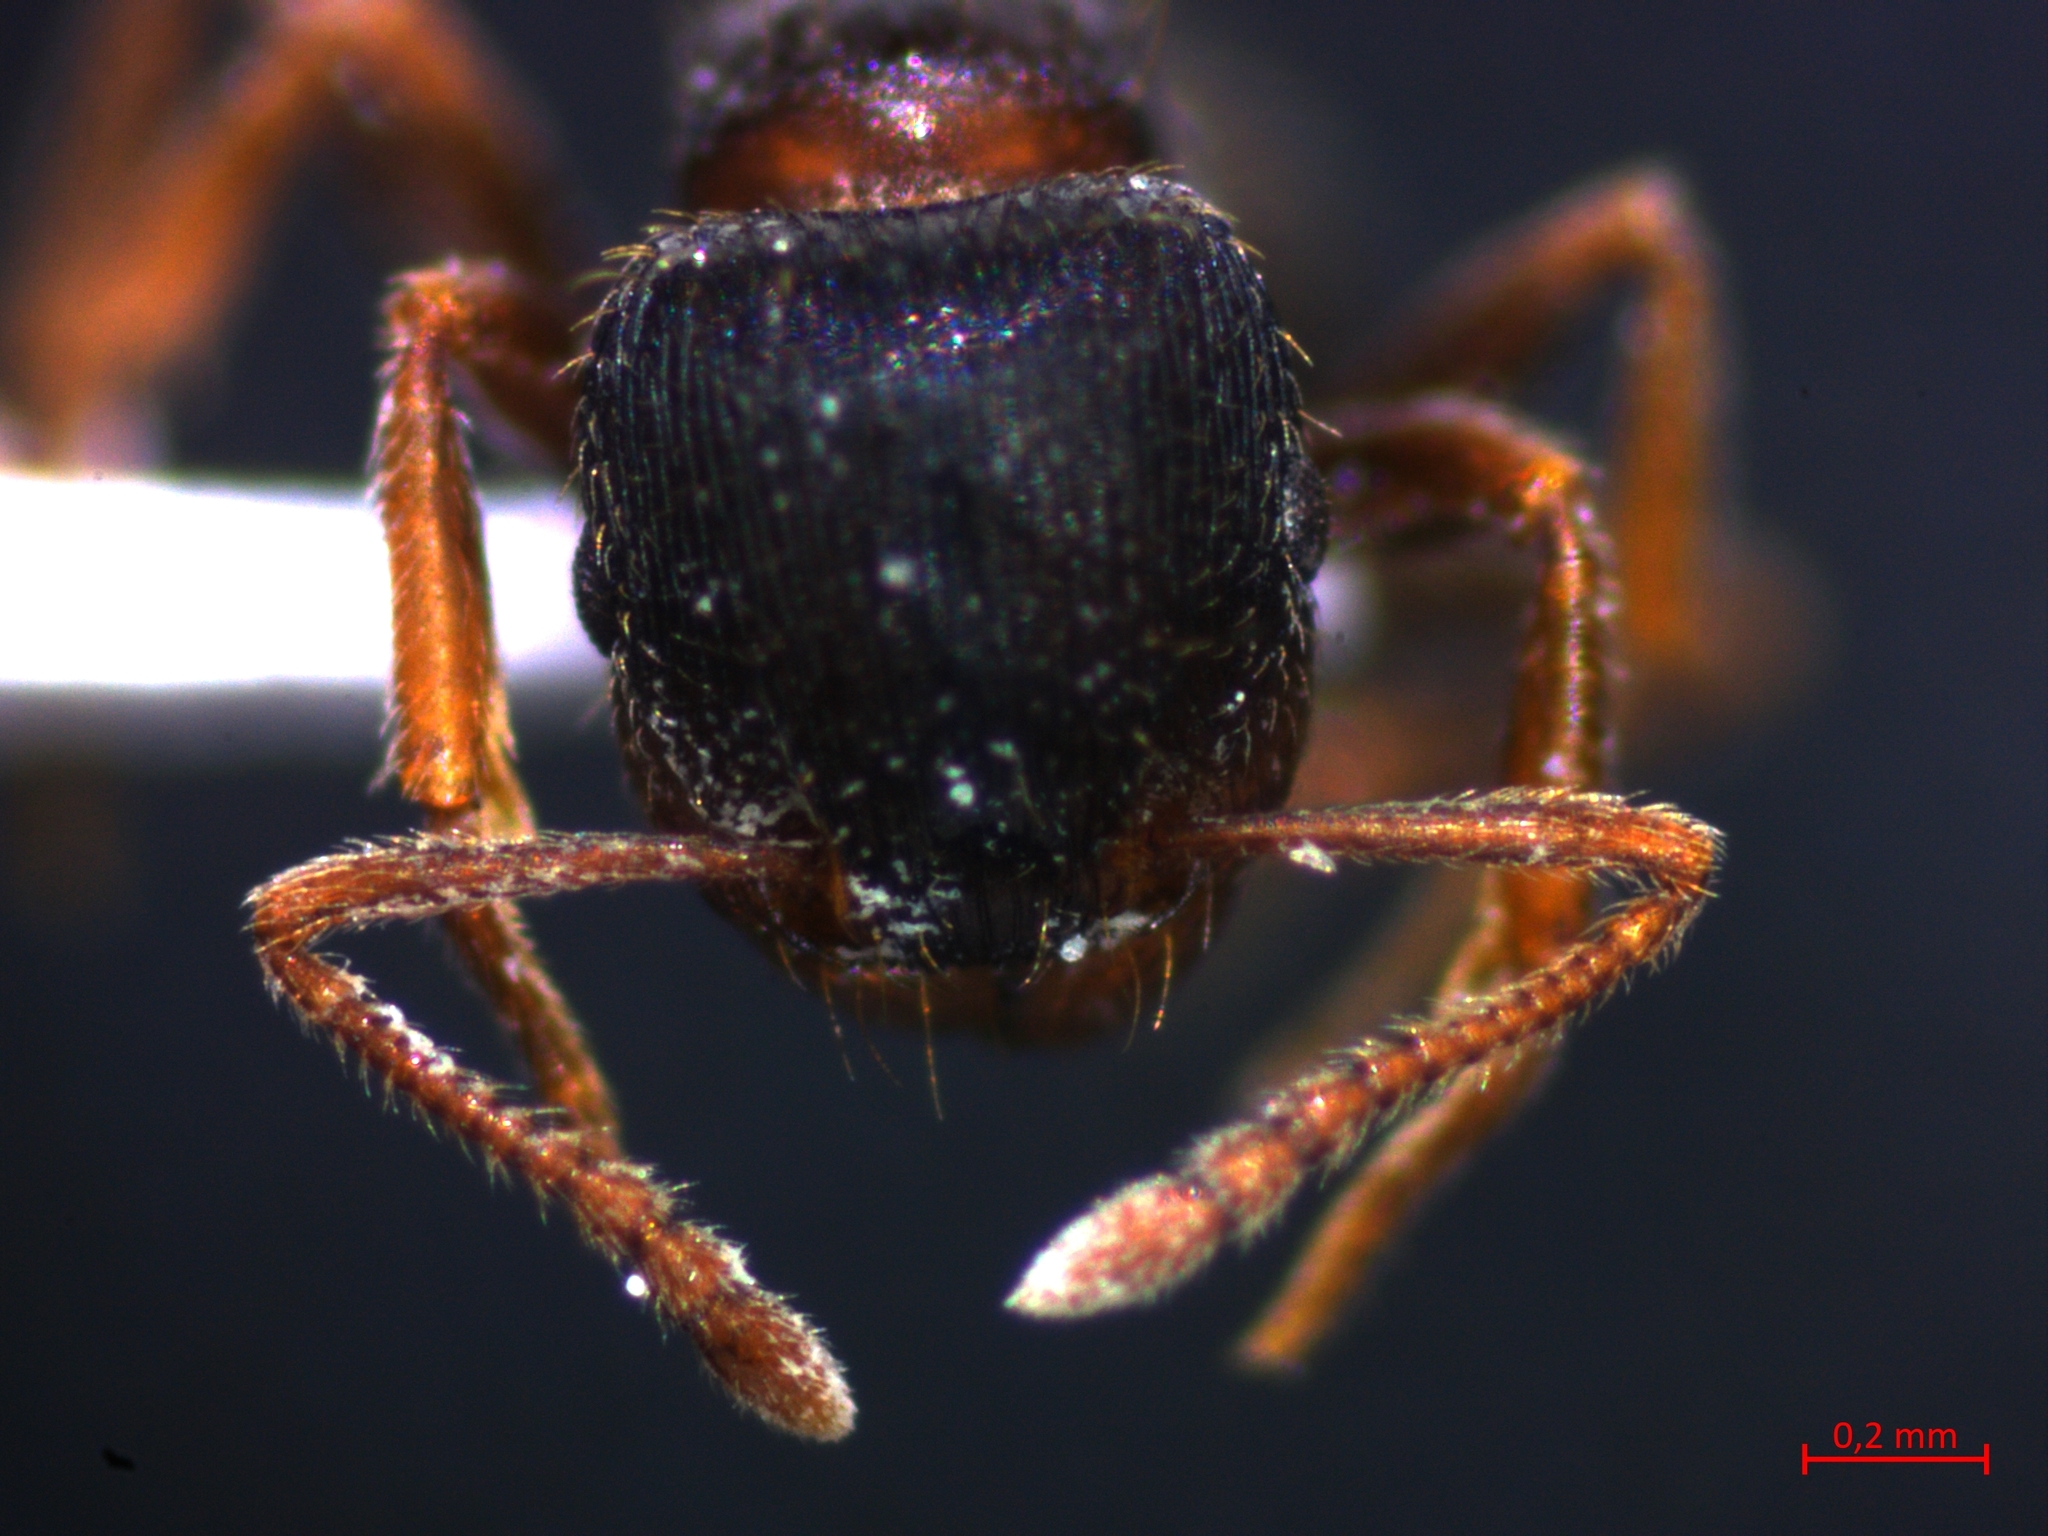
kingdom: Animalia
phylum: Arthropoda
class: Insecta
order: Hymenoptera
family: Formicidae
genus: Tetramorium
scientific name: Tetramorium caespitum
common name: Pavement ant
